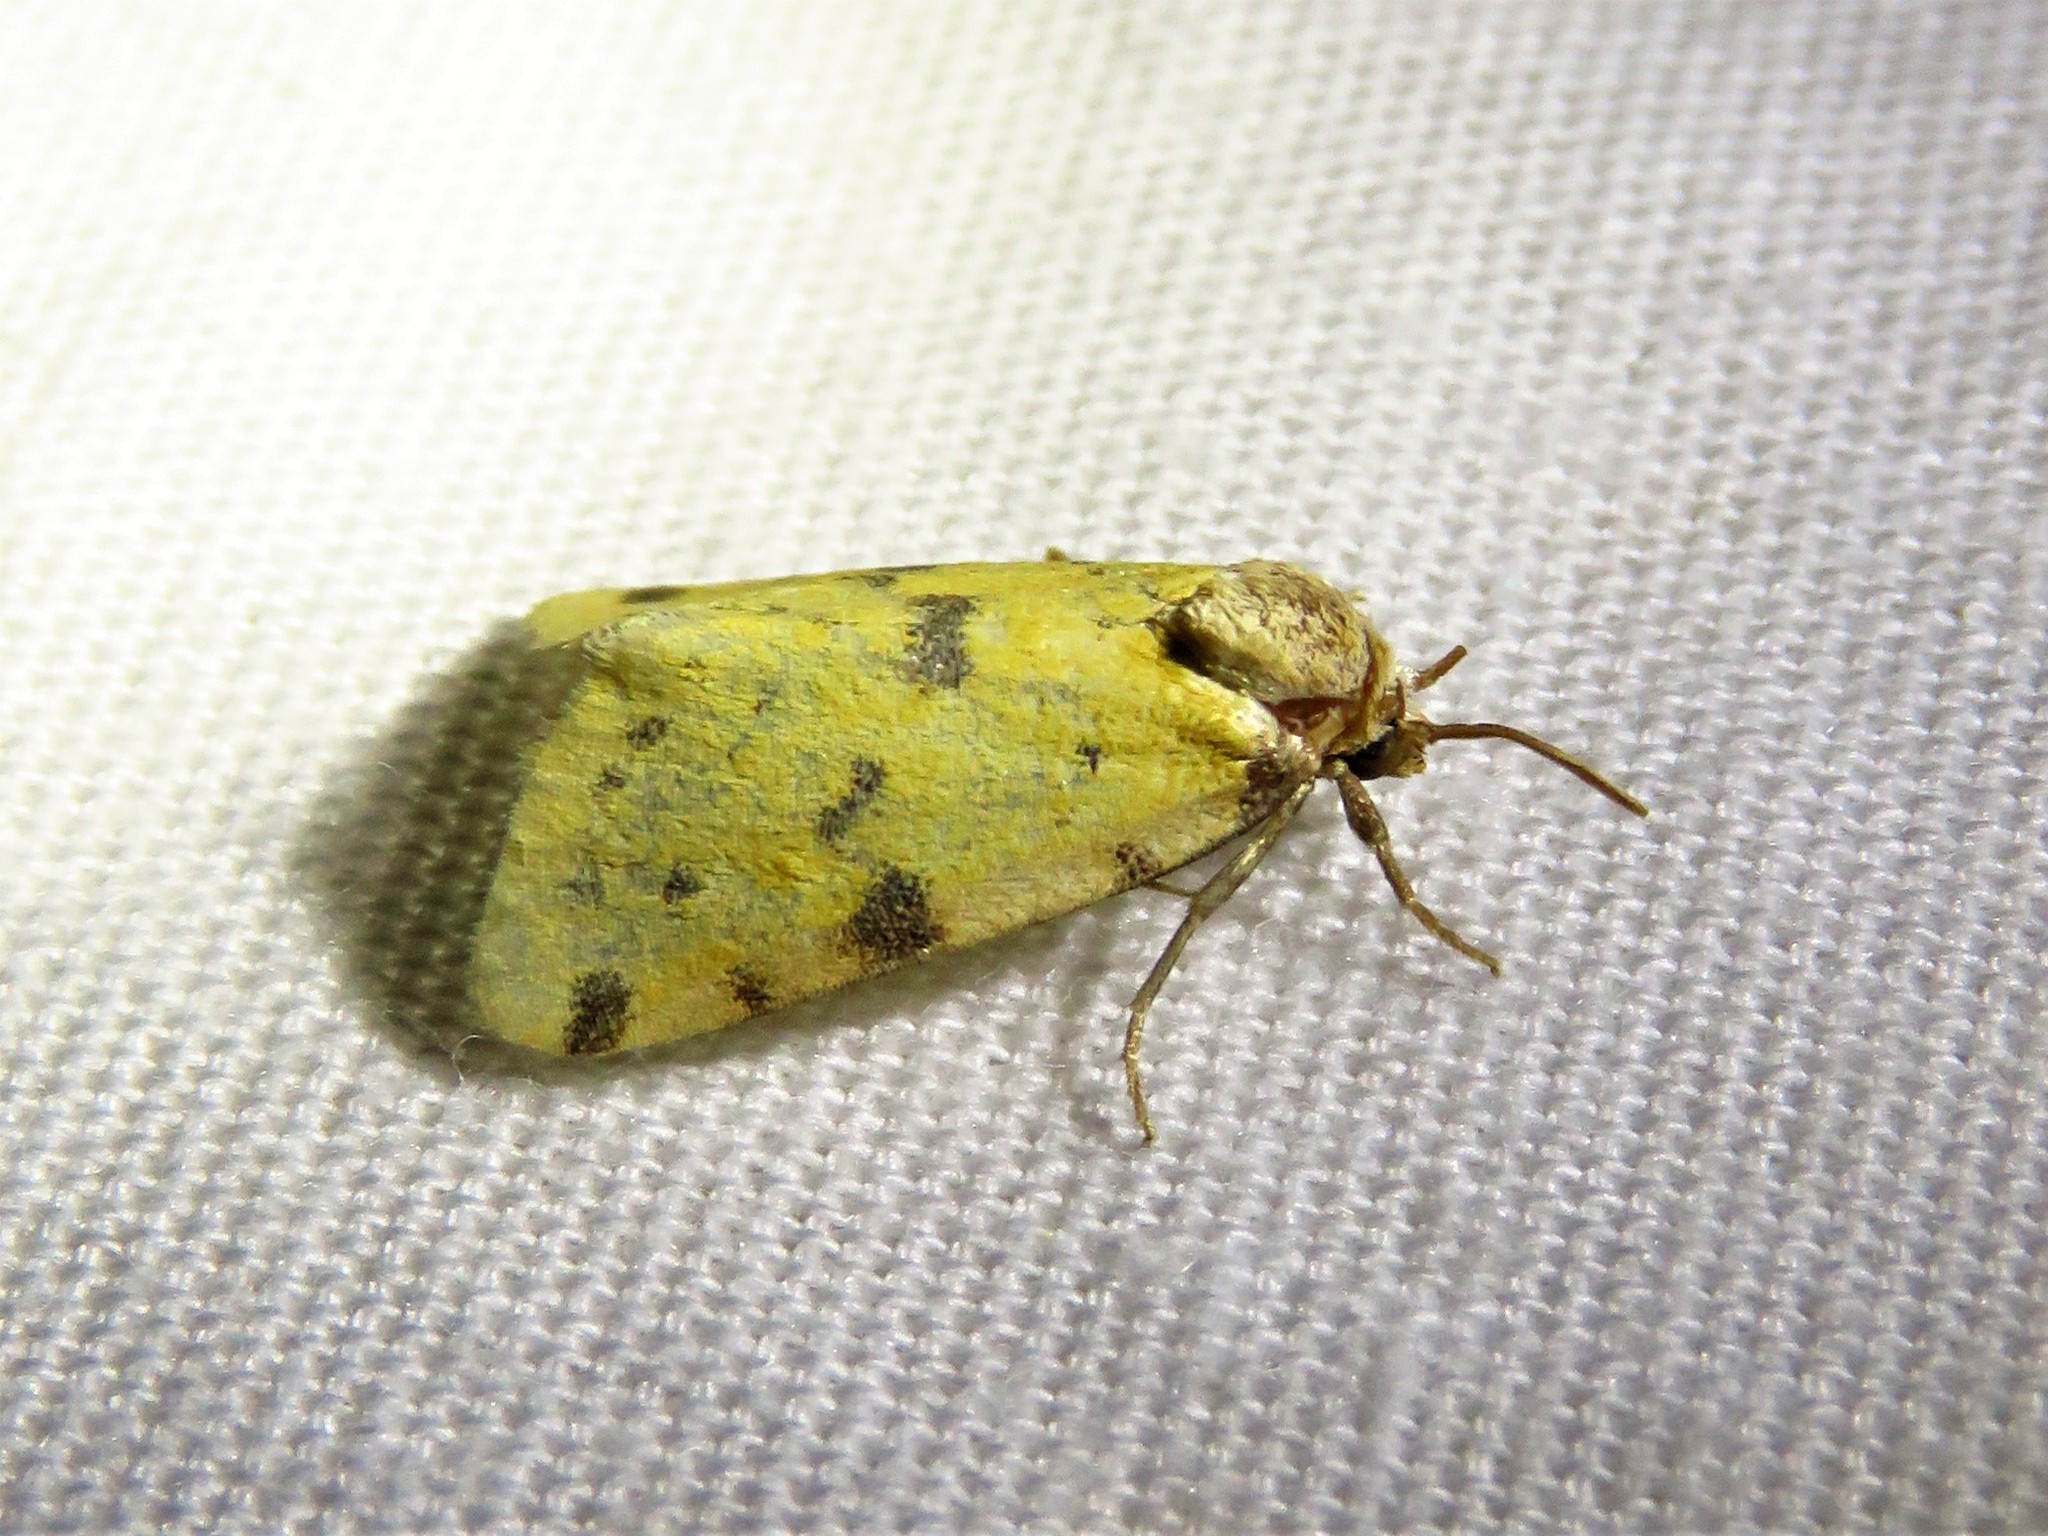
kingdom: Animalia
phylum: Arthropoda
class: Insecta
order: Lepidoptera
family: Noctuidae
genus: Azenia
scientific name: Azenia obtusa
